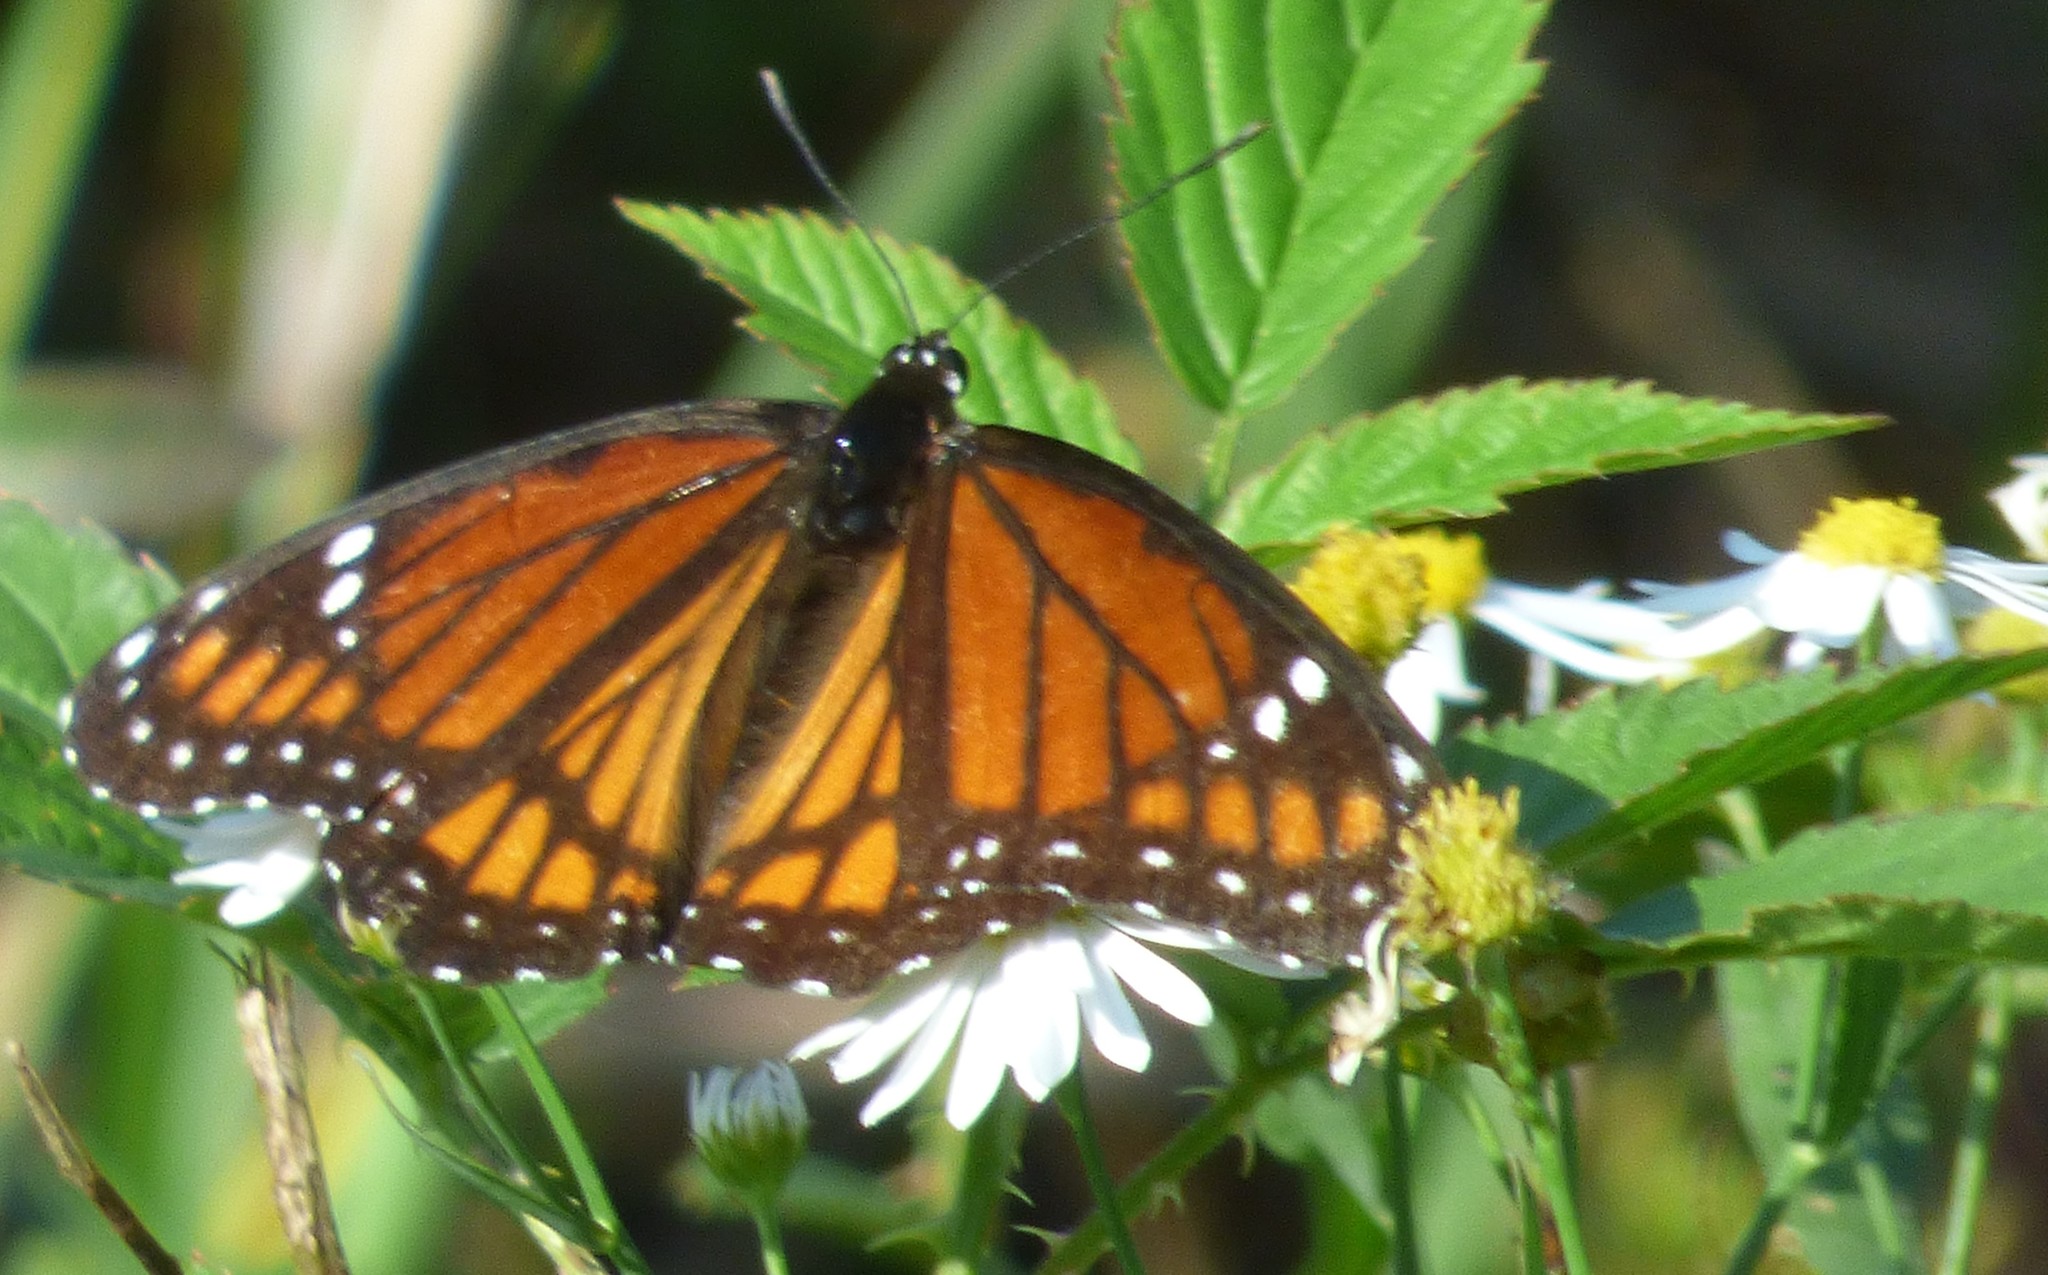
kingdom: Animalia
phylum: Arthropoda
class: Insecta
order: Lepidoptera
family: Nymphalidae
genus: Limenitis
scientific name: Limenitis archippus
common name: Viceroy
